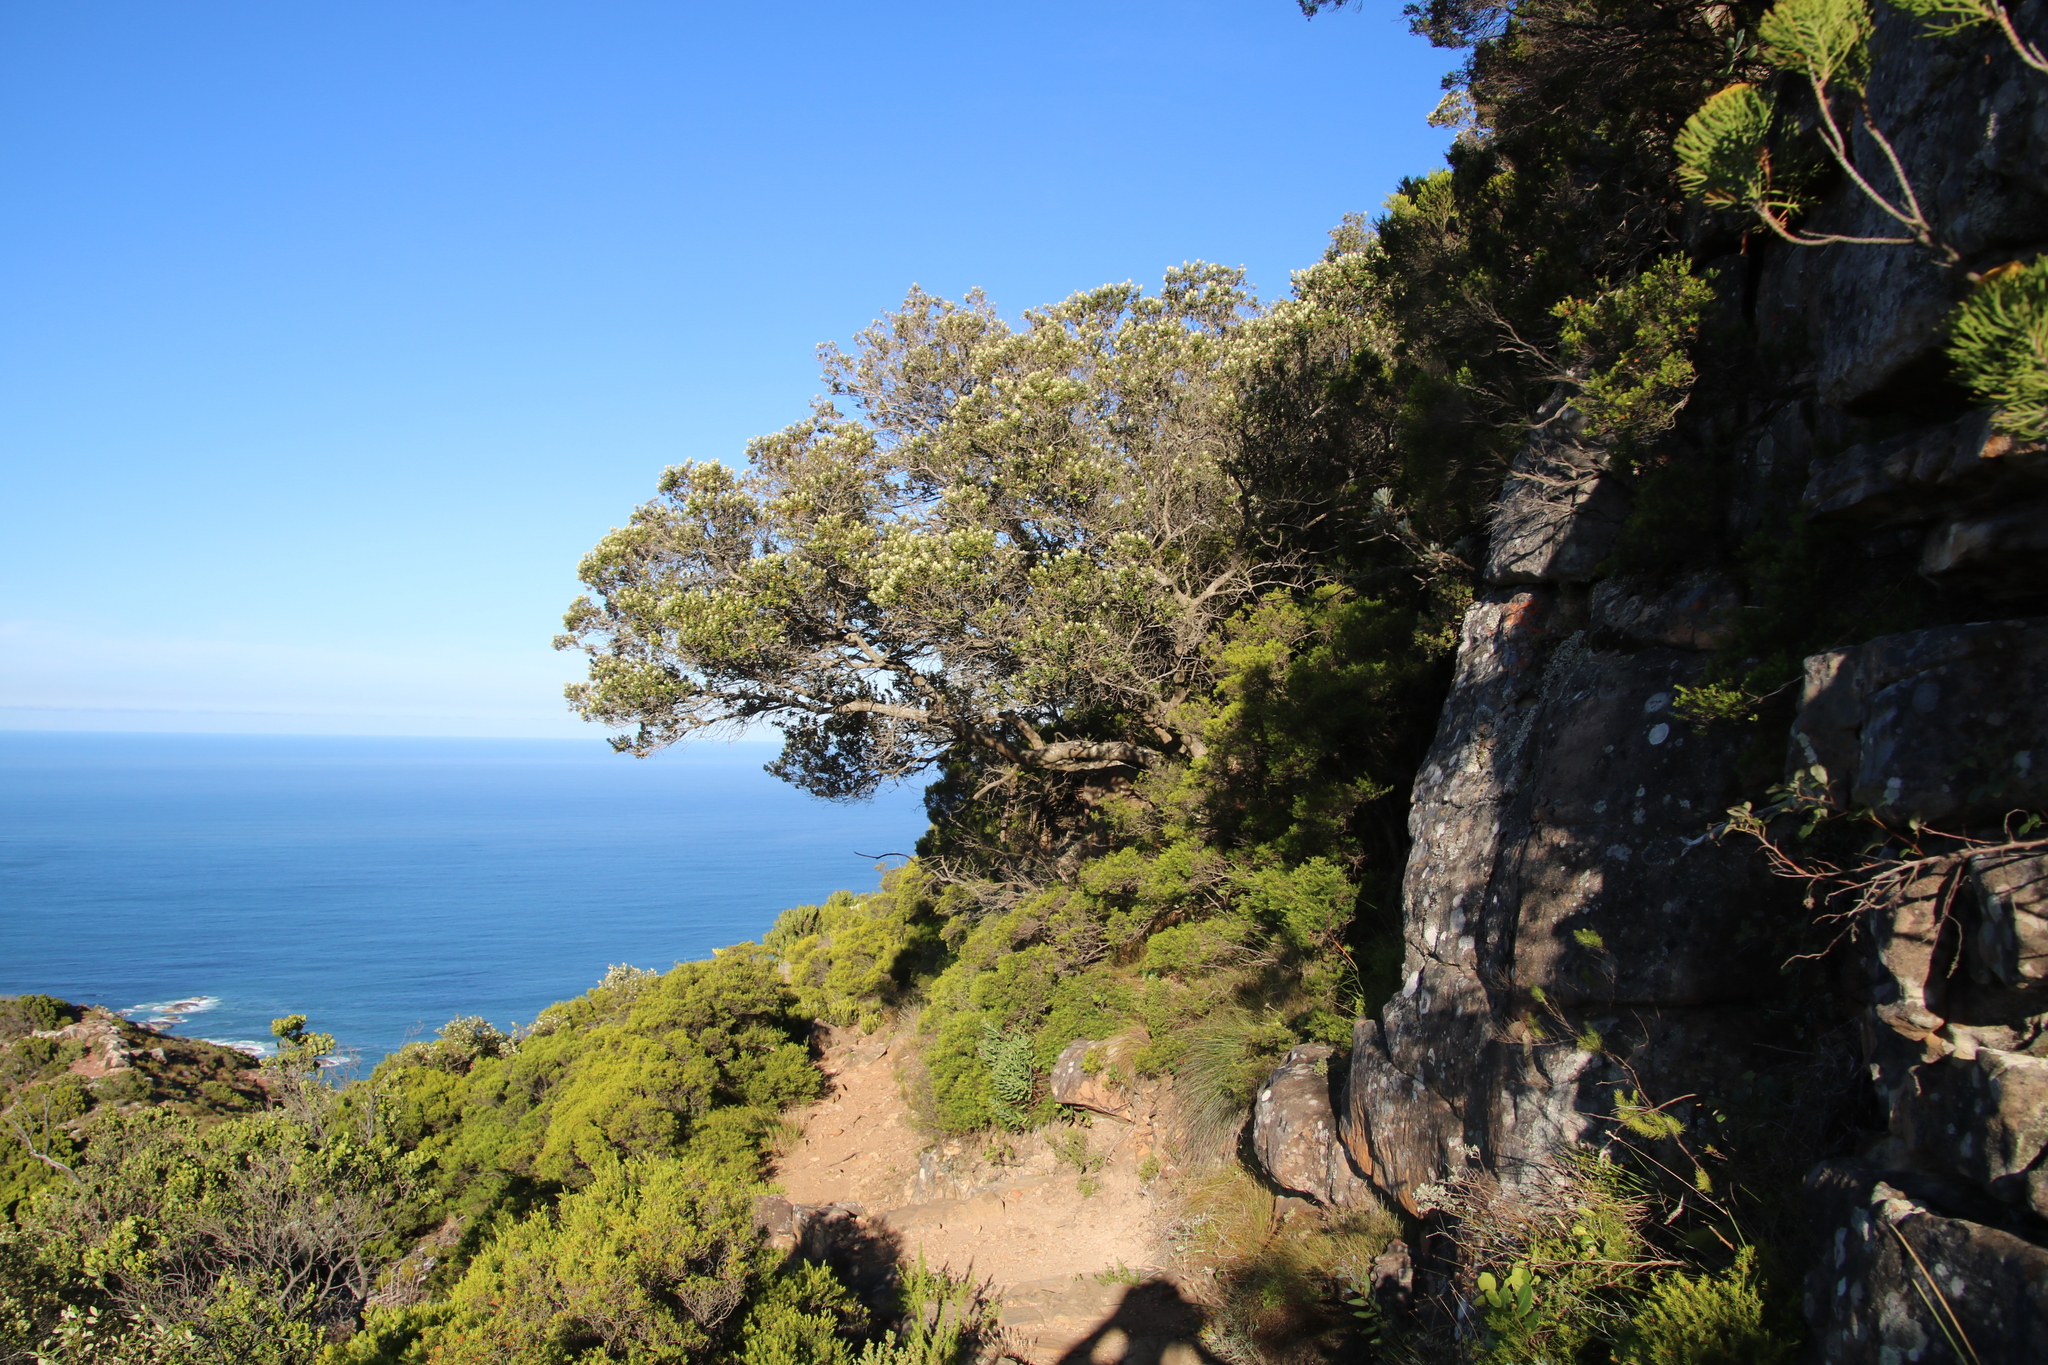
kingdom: Plantae
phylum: Tracheophyta
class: Magnoliopsida
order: Rosales
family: Rhamnaceae
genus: Phylica
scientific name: Phylica buxifolia
